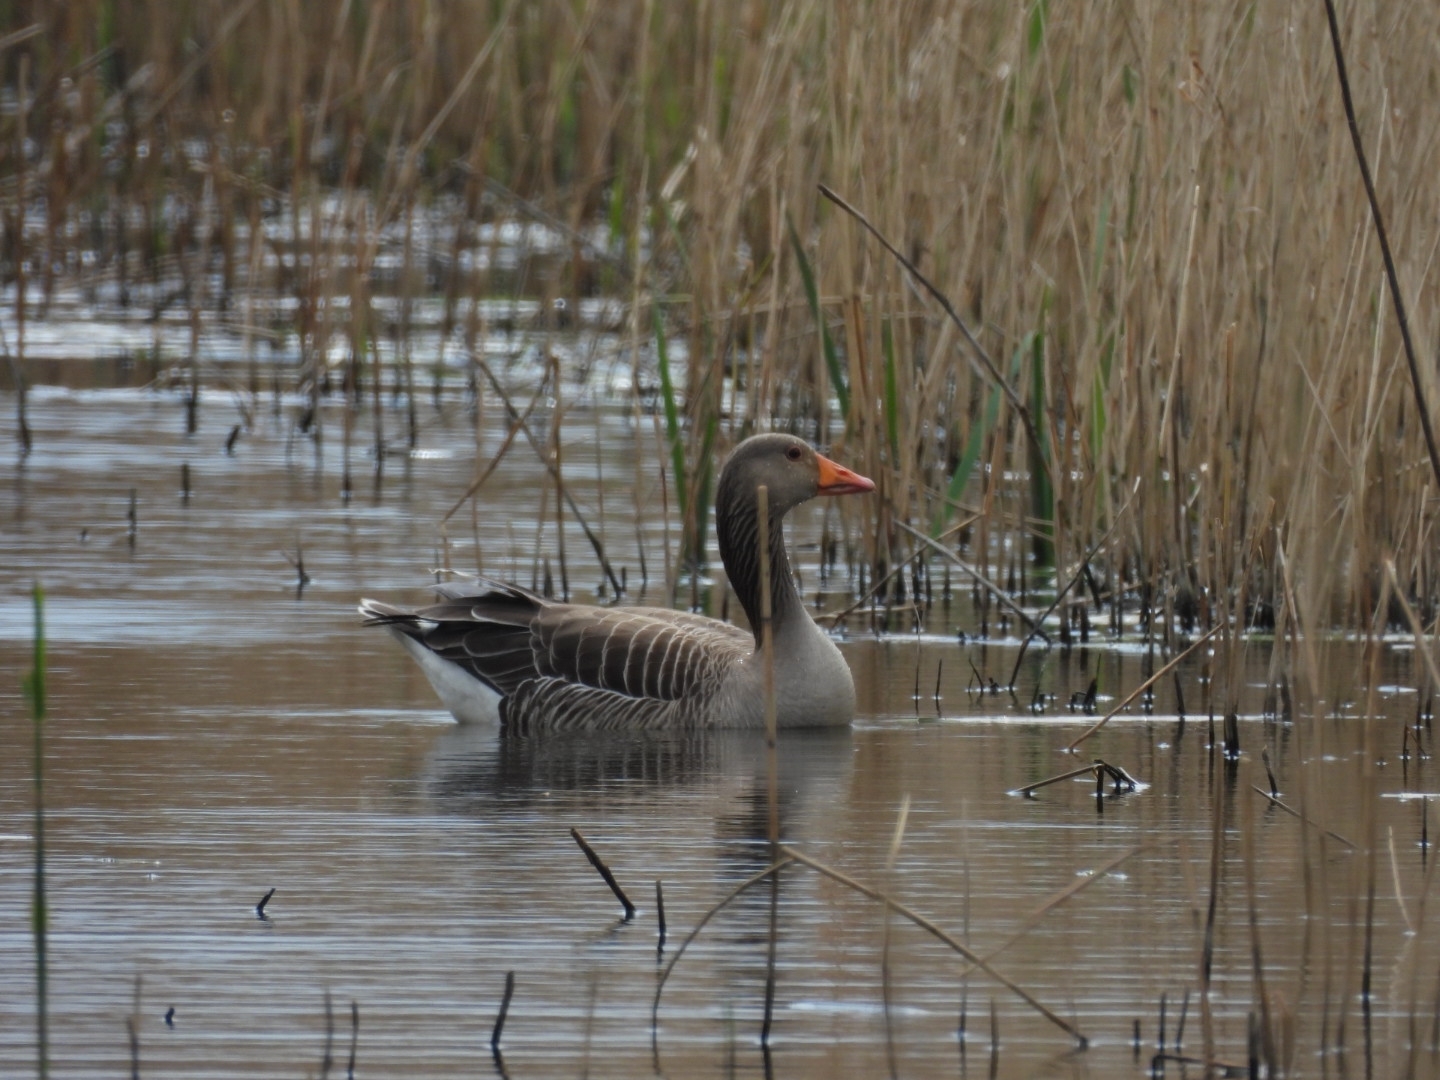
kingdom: Animalia
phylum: Chordata
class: Aves
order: Anseriformes
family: Anatidae
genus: Anser
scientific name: Anser anser
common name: Greylag goose
